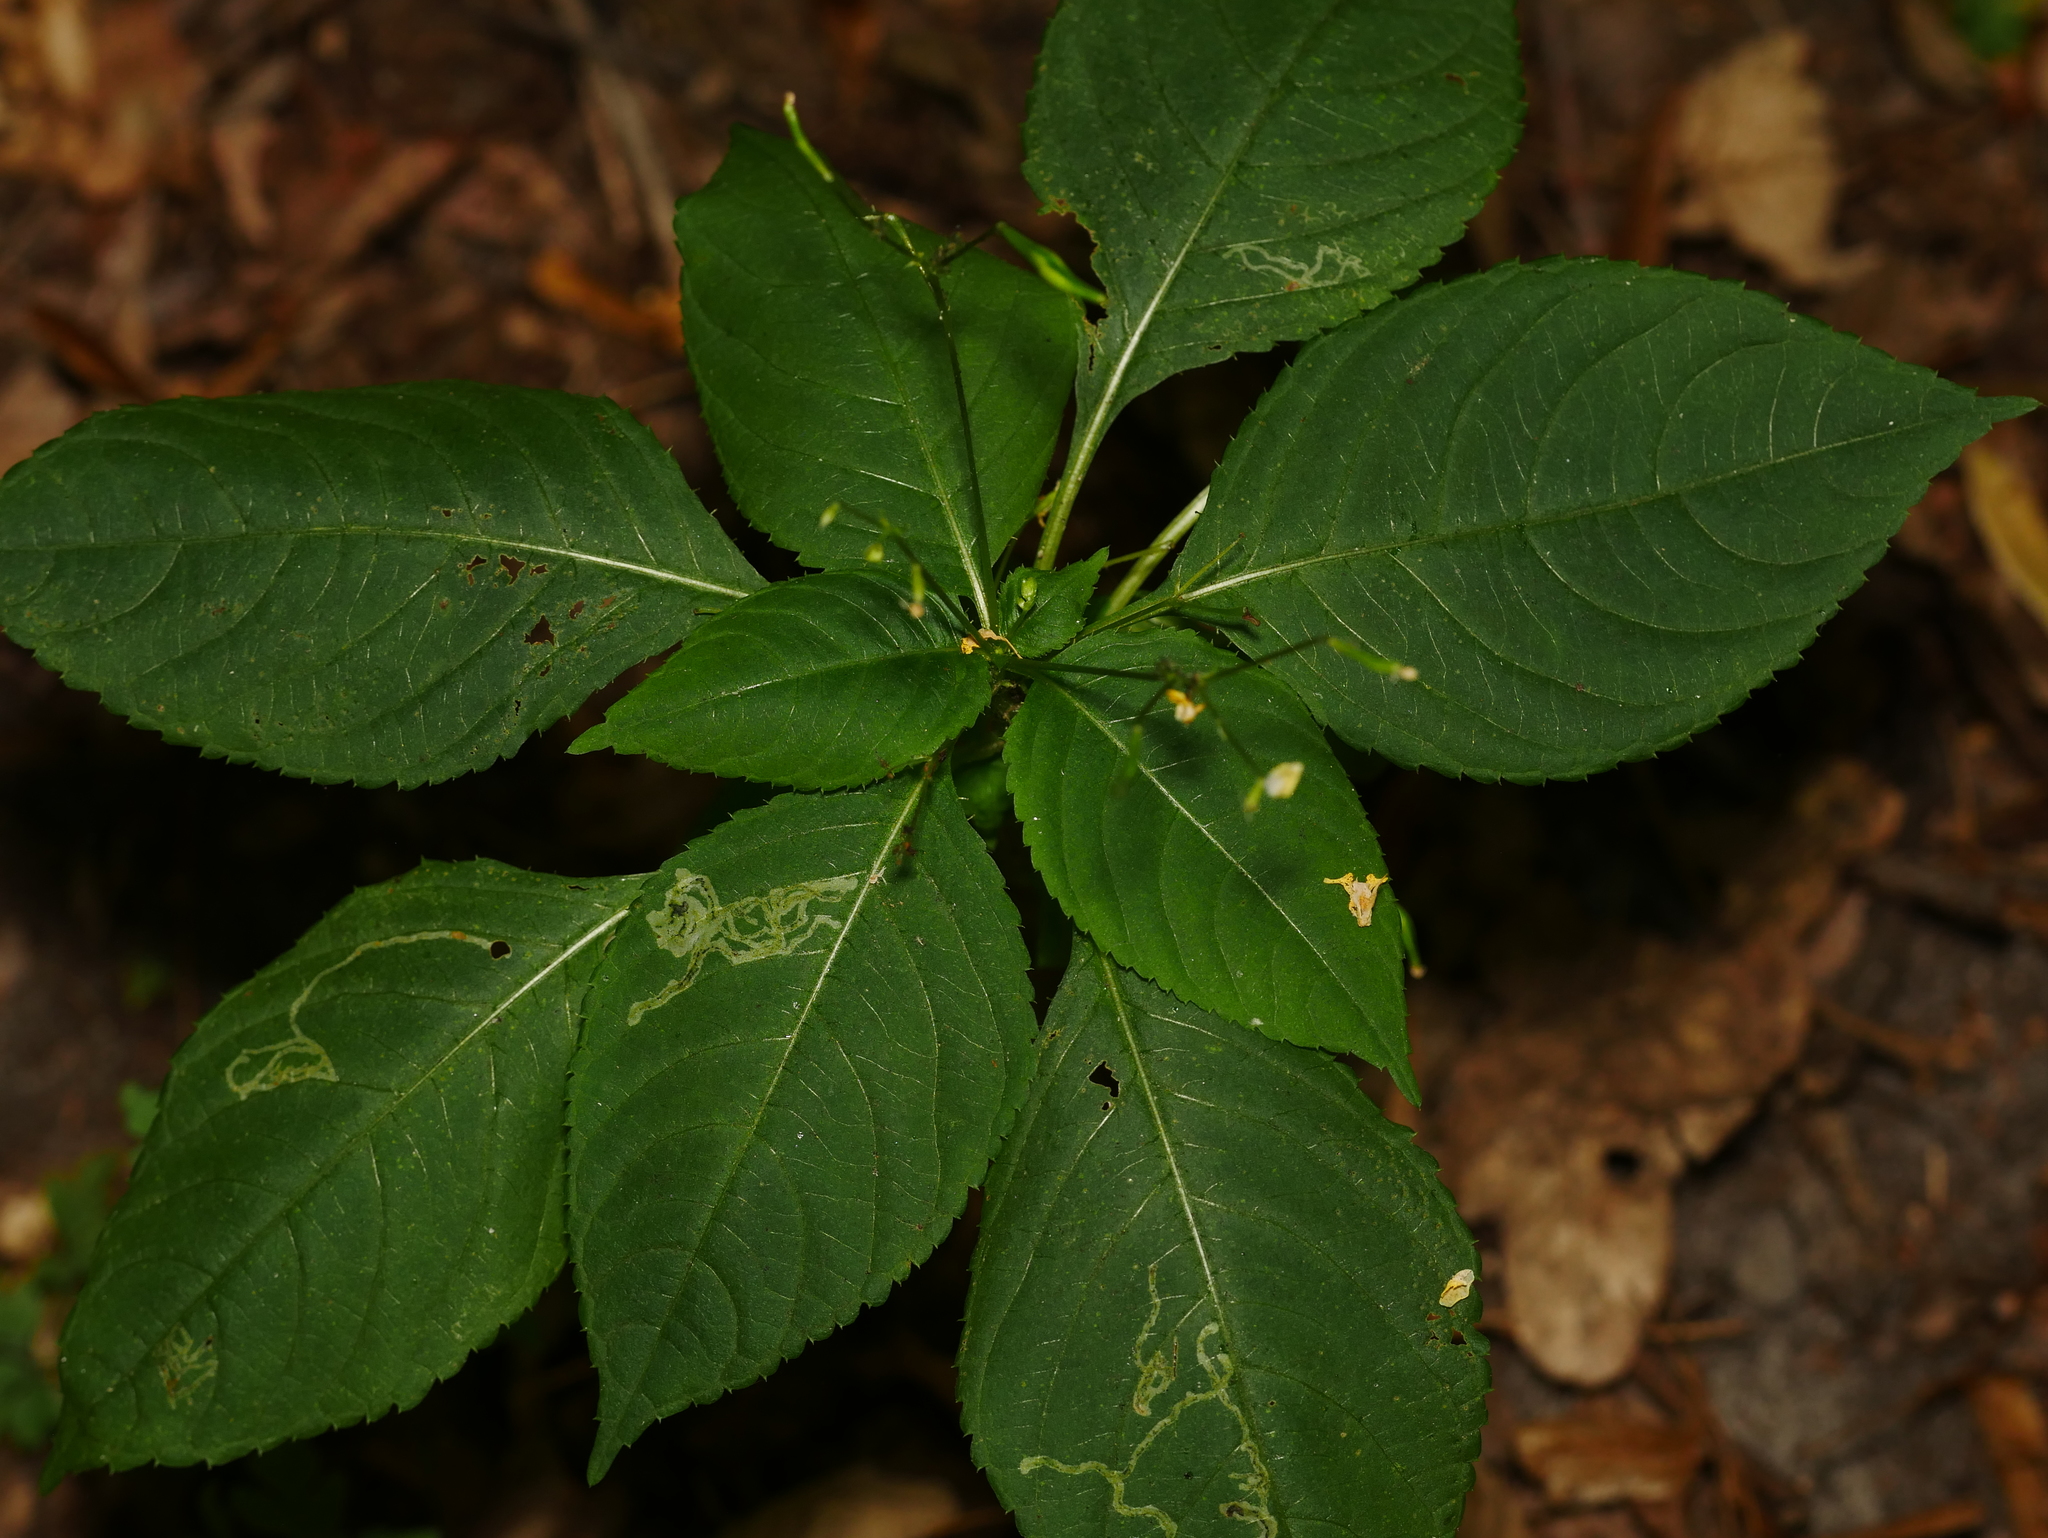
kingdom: Plantae
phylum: Tracheophyta
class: Magnoliopsida
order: Ericales
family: Balsaminaceae
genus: Impatiens
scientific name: Impatiens parviflora
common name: Small balsam
